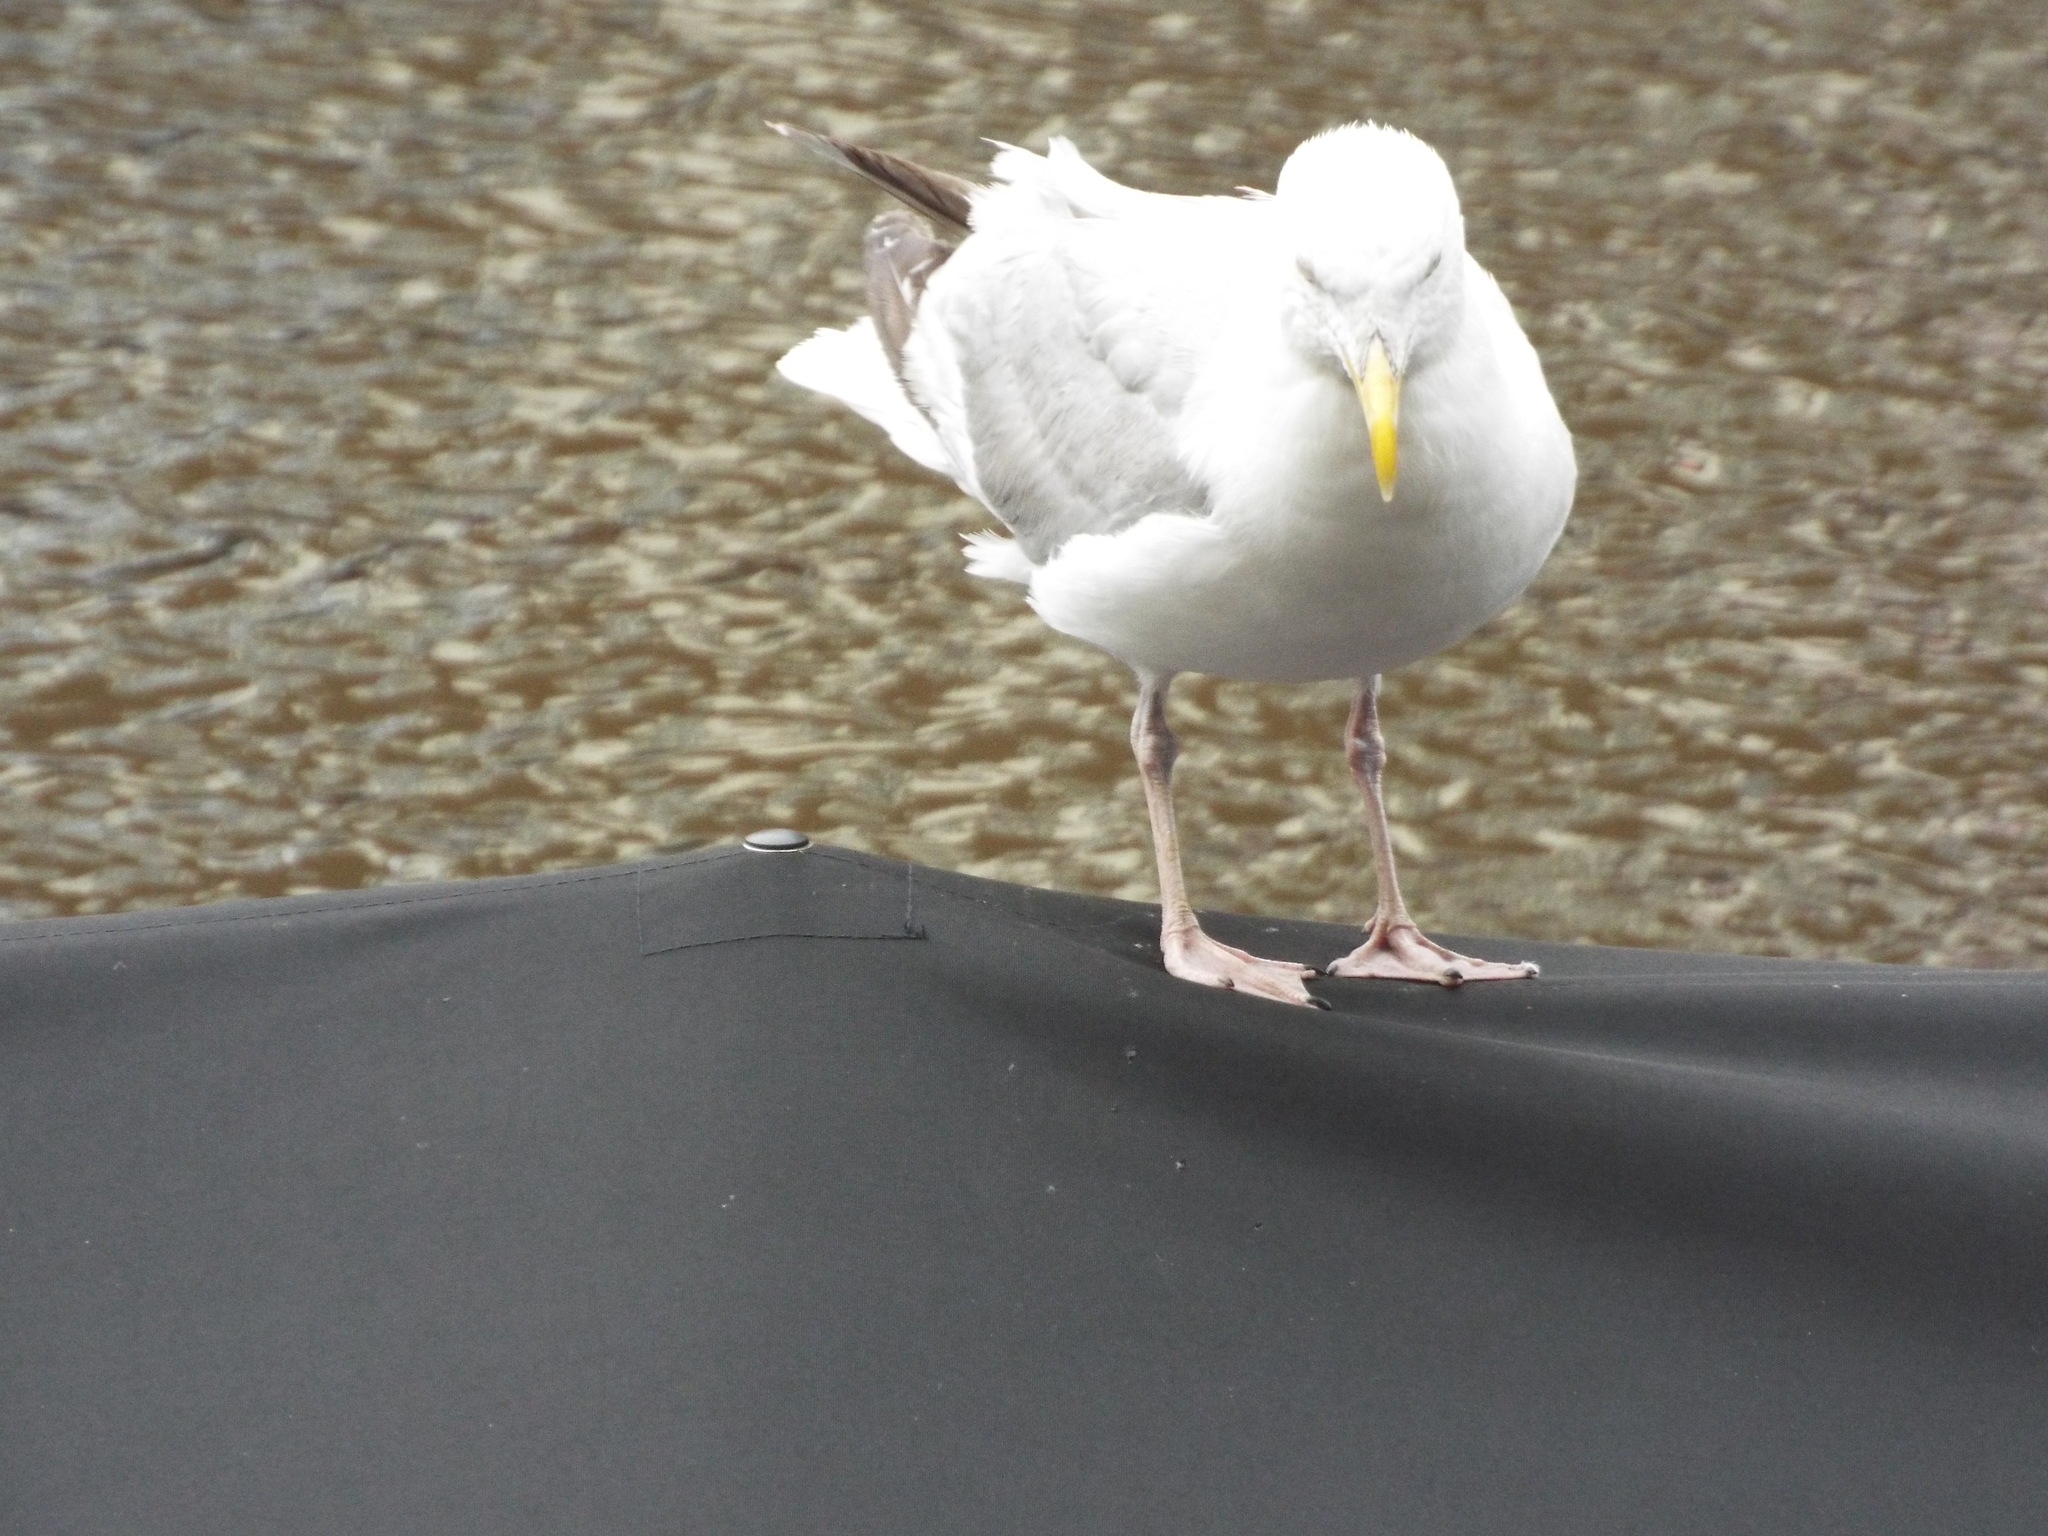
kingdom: Animalia
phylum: Chordata
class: Aves
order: Charadriiformes
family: Laridae
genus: Larus
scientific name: Larus argentatus
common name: Herring gull
